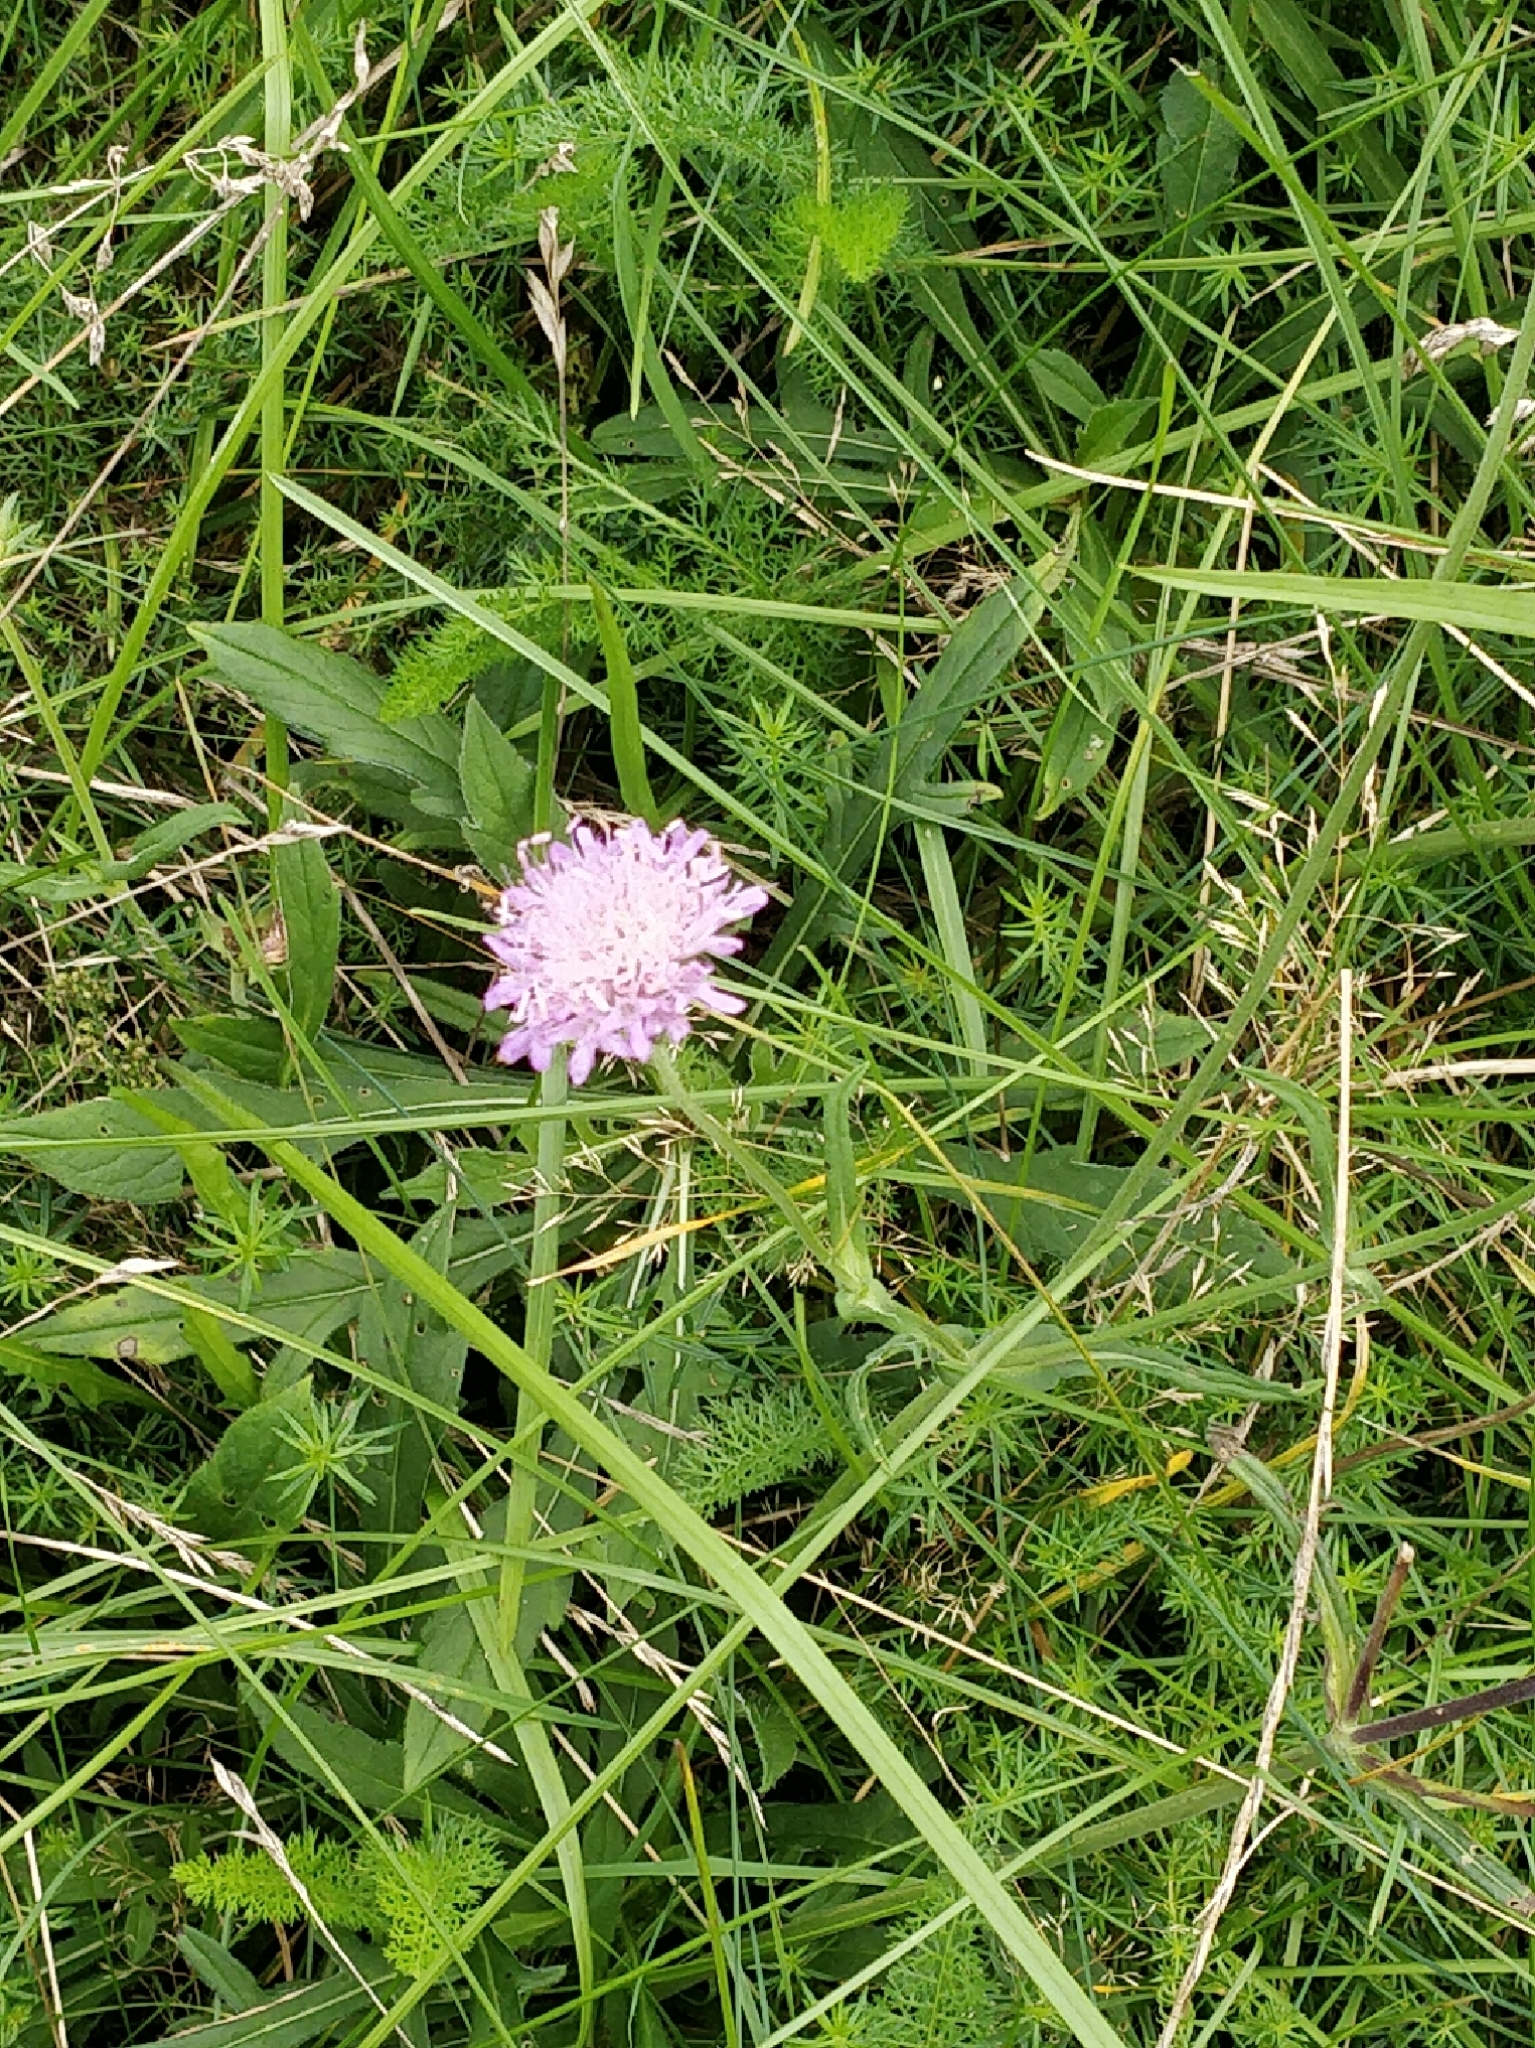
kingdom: Plantae
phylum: Tracheophyta
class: Magnoliopsida
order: Dipsacales
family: Caprifoliaceae
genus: Knautia
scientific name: Knautia arvensis
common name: Field scabiosa
